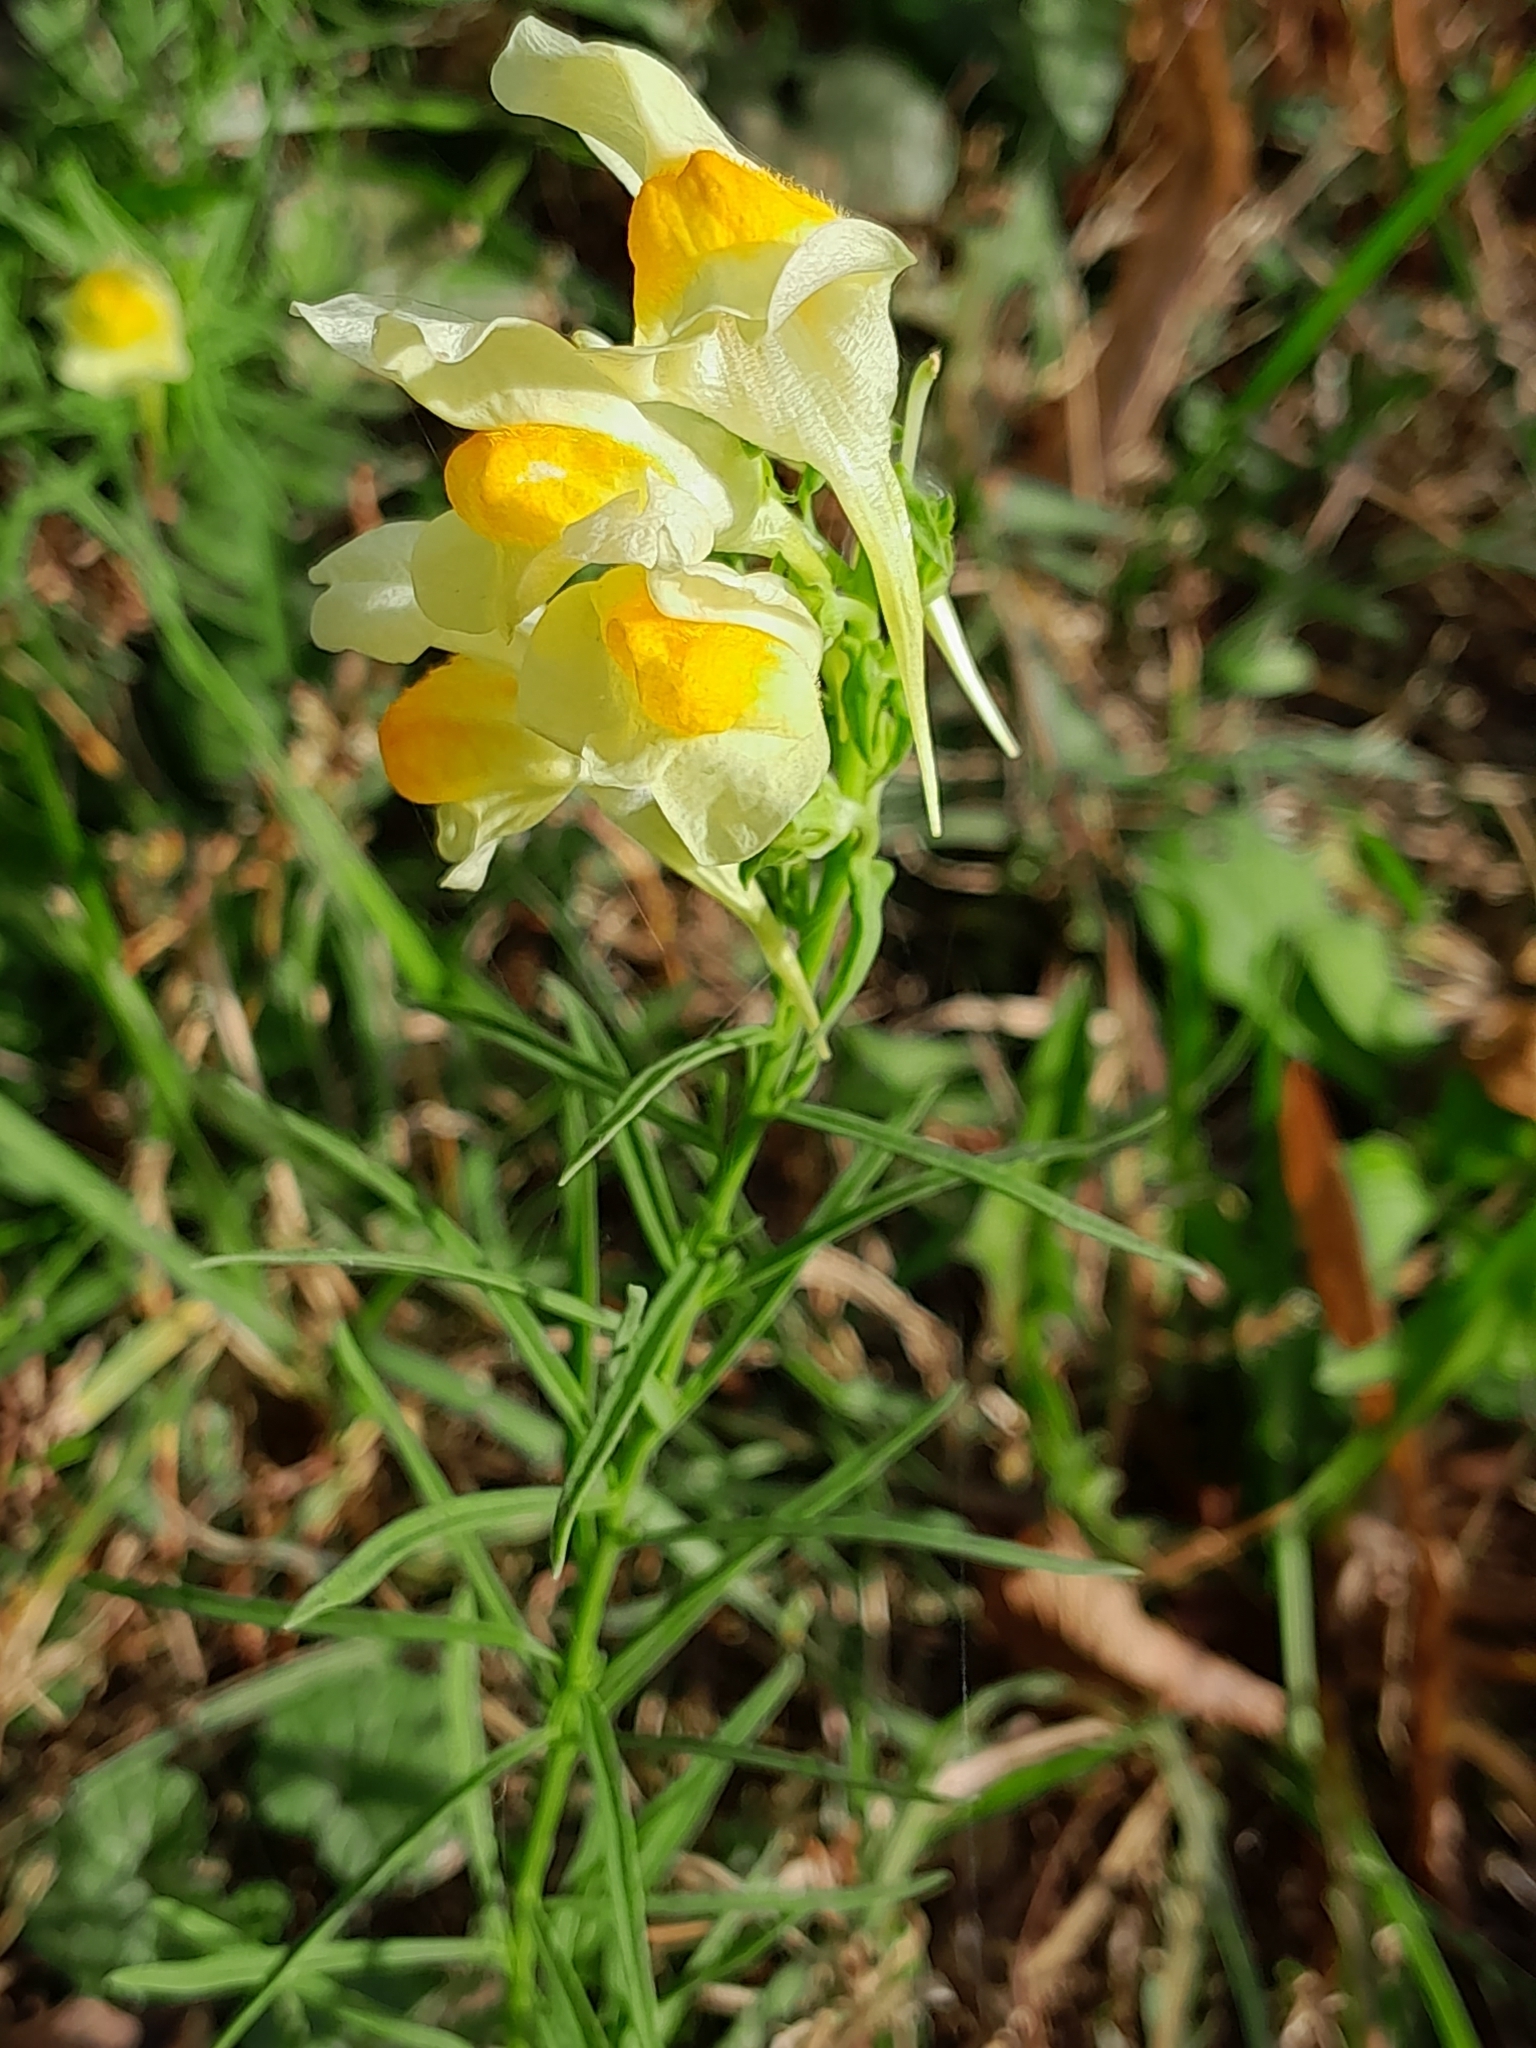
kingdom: Plantae
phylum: Tracheophyta
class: Magnoliopsida
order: Lamiales
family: Plantaginaceae
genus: Linaria
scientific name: Linaria vulgaris
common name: Butter and eggs
